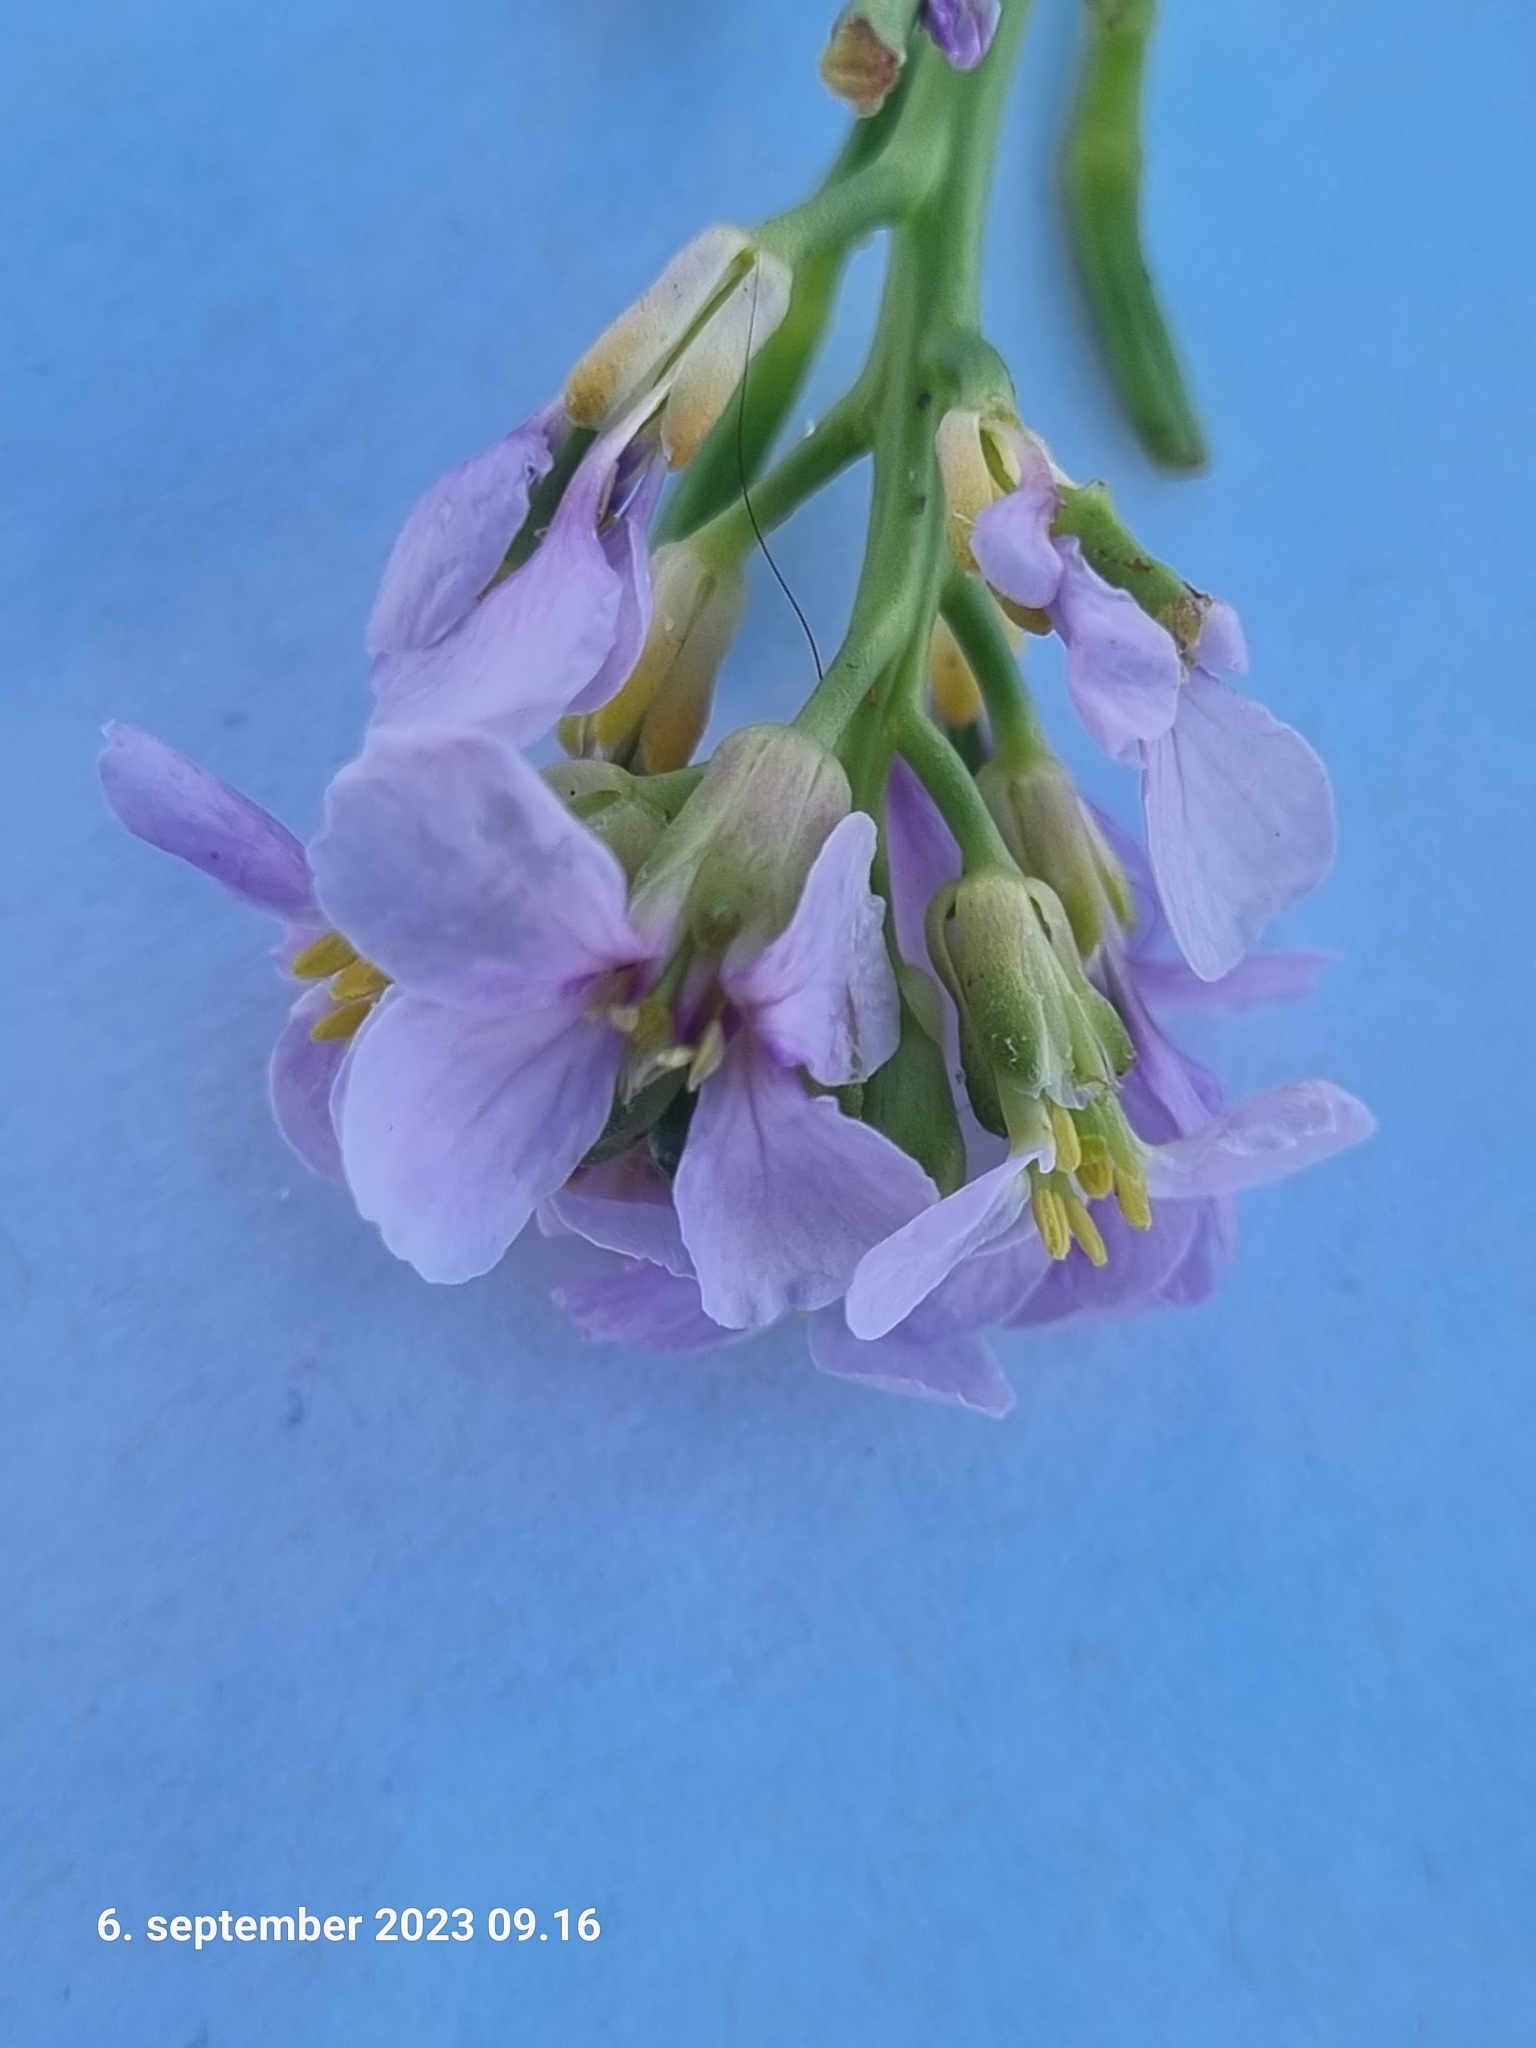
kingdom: Plantae
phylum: Tracheophyta
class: Magnoliopsida
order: Brassicales
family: Brassicaceae
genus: Cakile
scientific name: Cakile maritima
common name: Sea rocket
